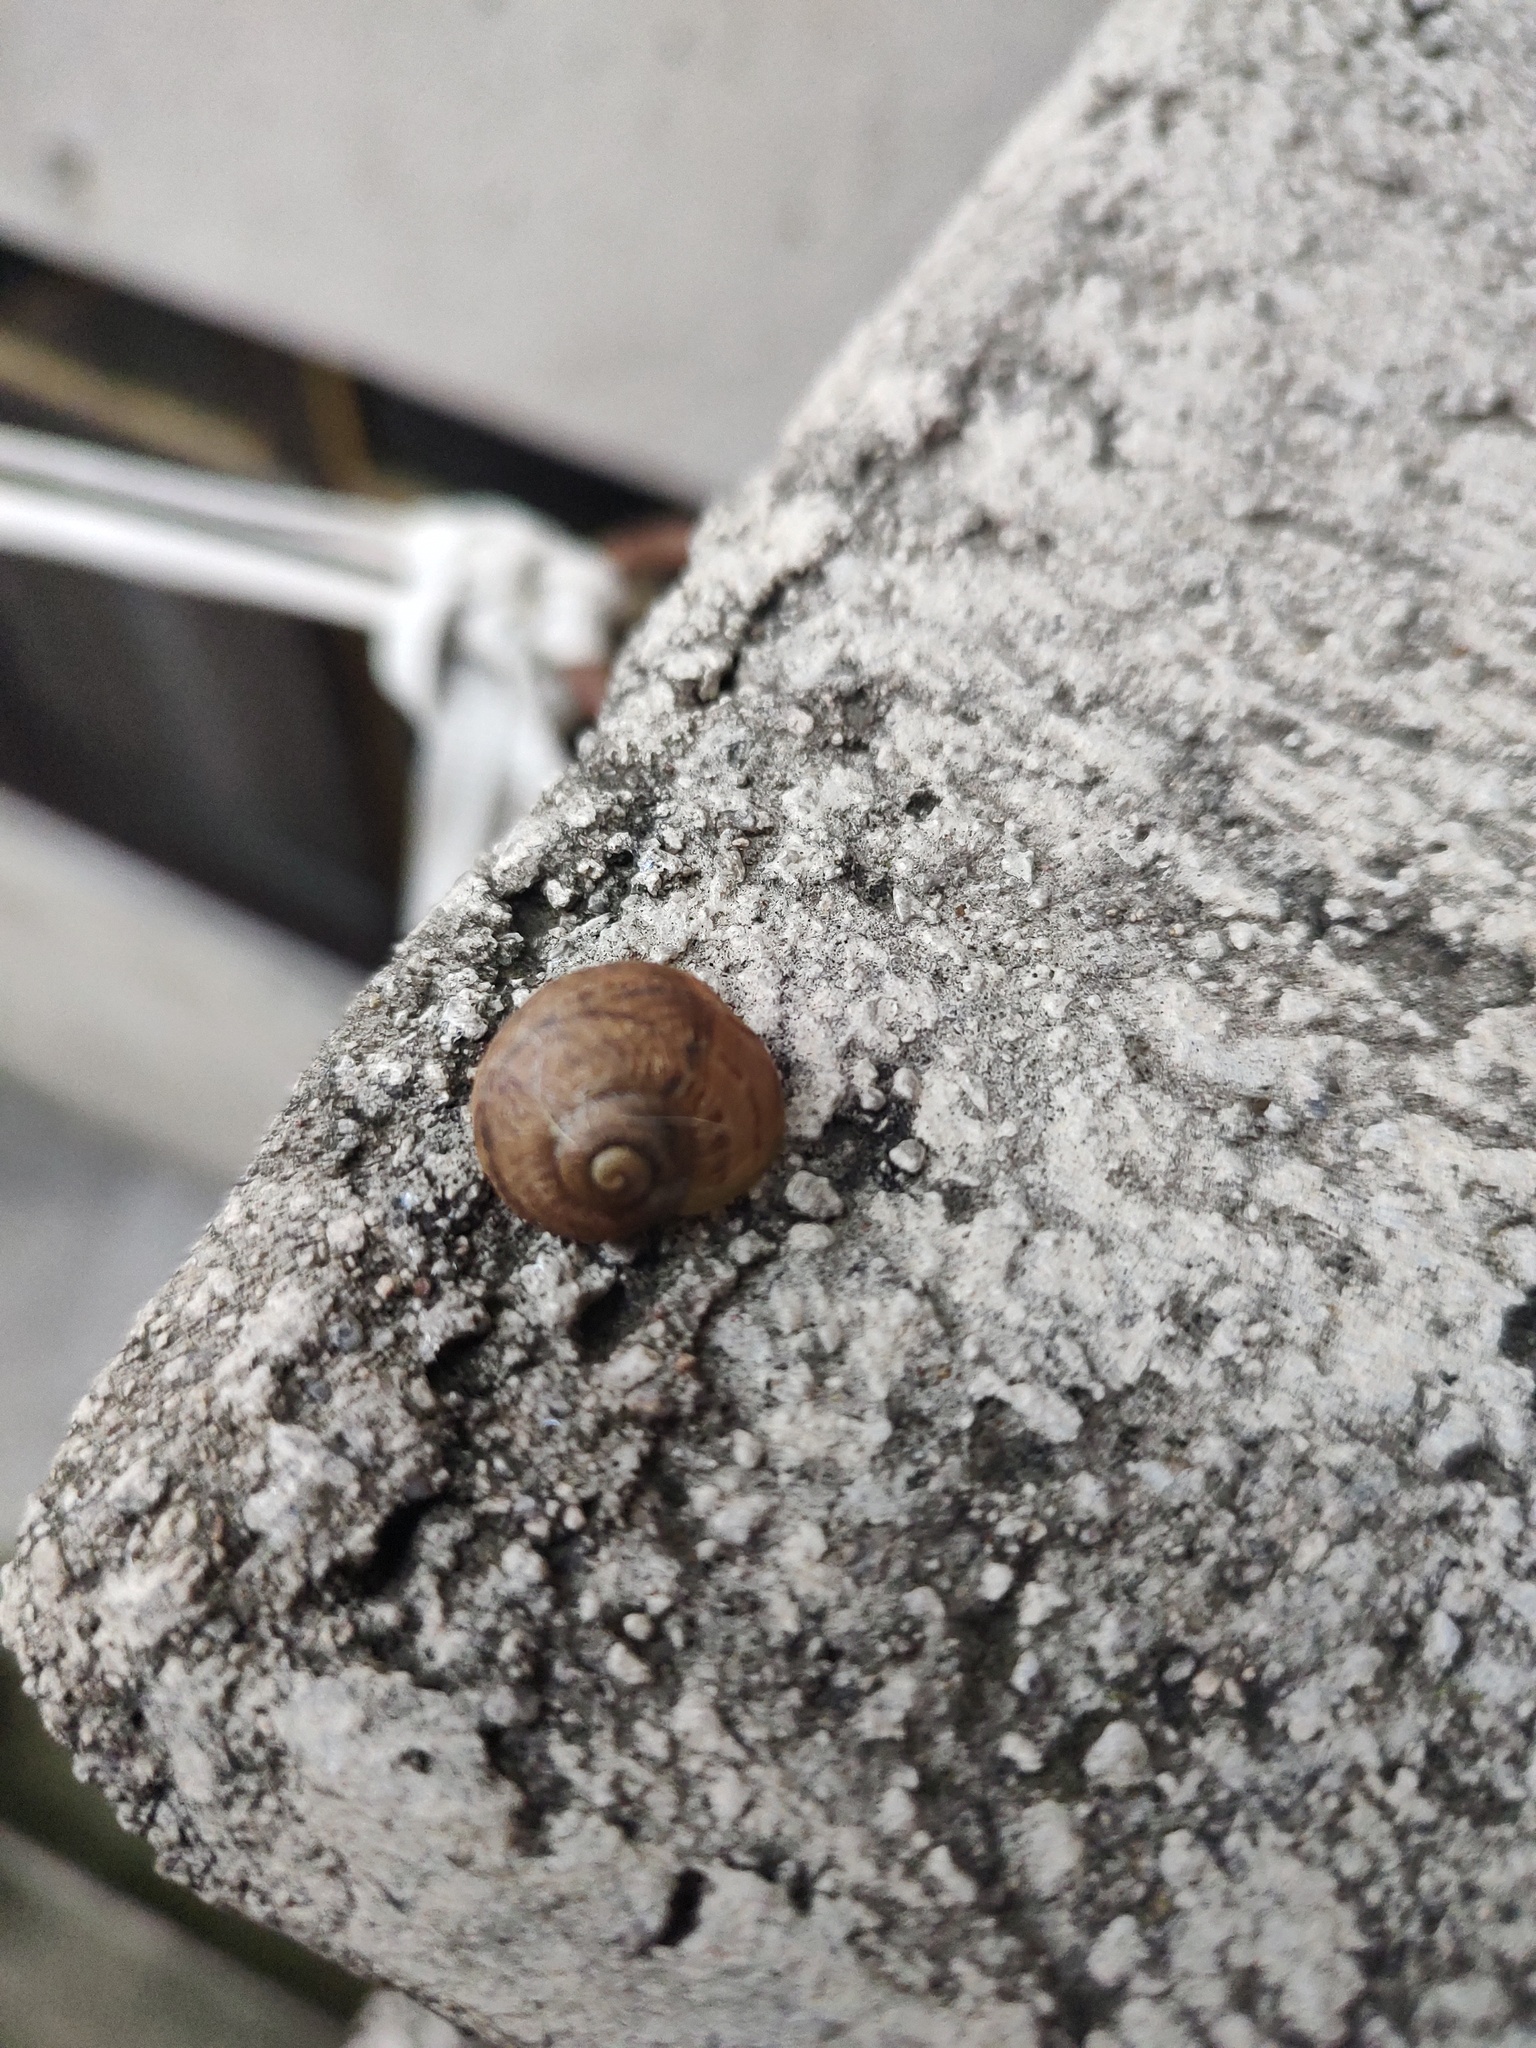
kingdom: Animalia
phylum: Mollusca
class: Gastropoda
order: Stylommatophora
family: Helicidae
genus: Cornu
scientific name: Cornu aspersum
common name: Brown garden snail
